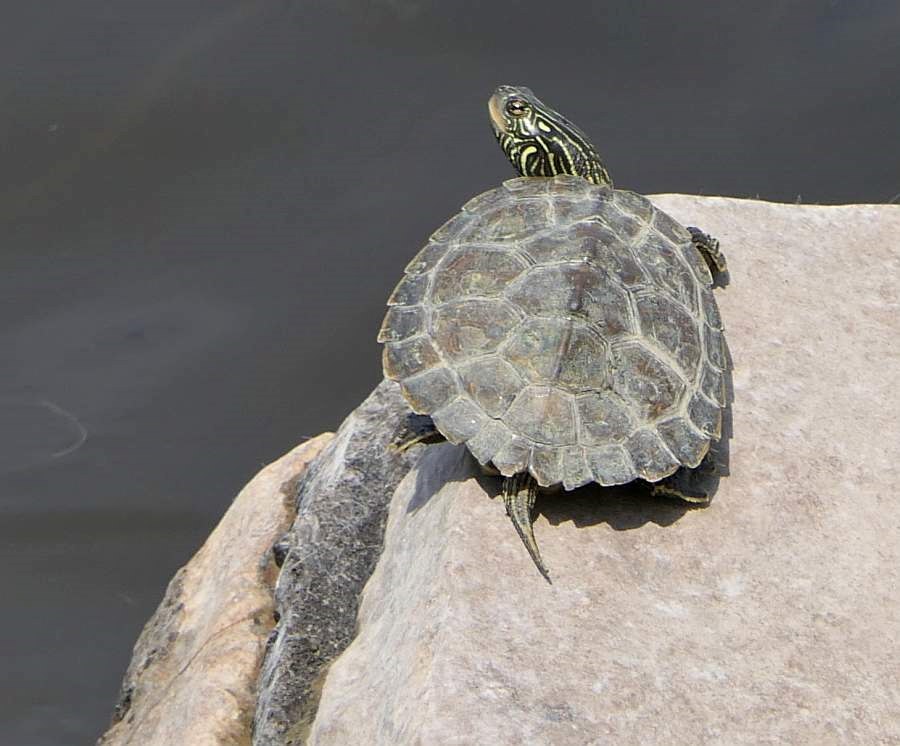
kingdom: Animalia
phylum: Chordata
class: Testudines
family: Emydidae
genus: Graptemys
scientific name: Graptemys geographica
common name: Common map turtle
